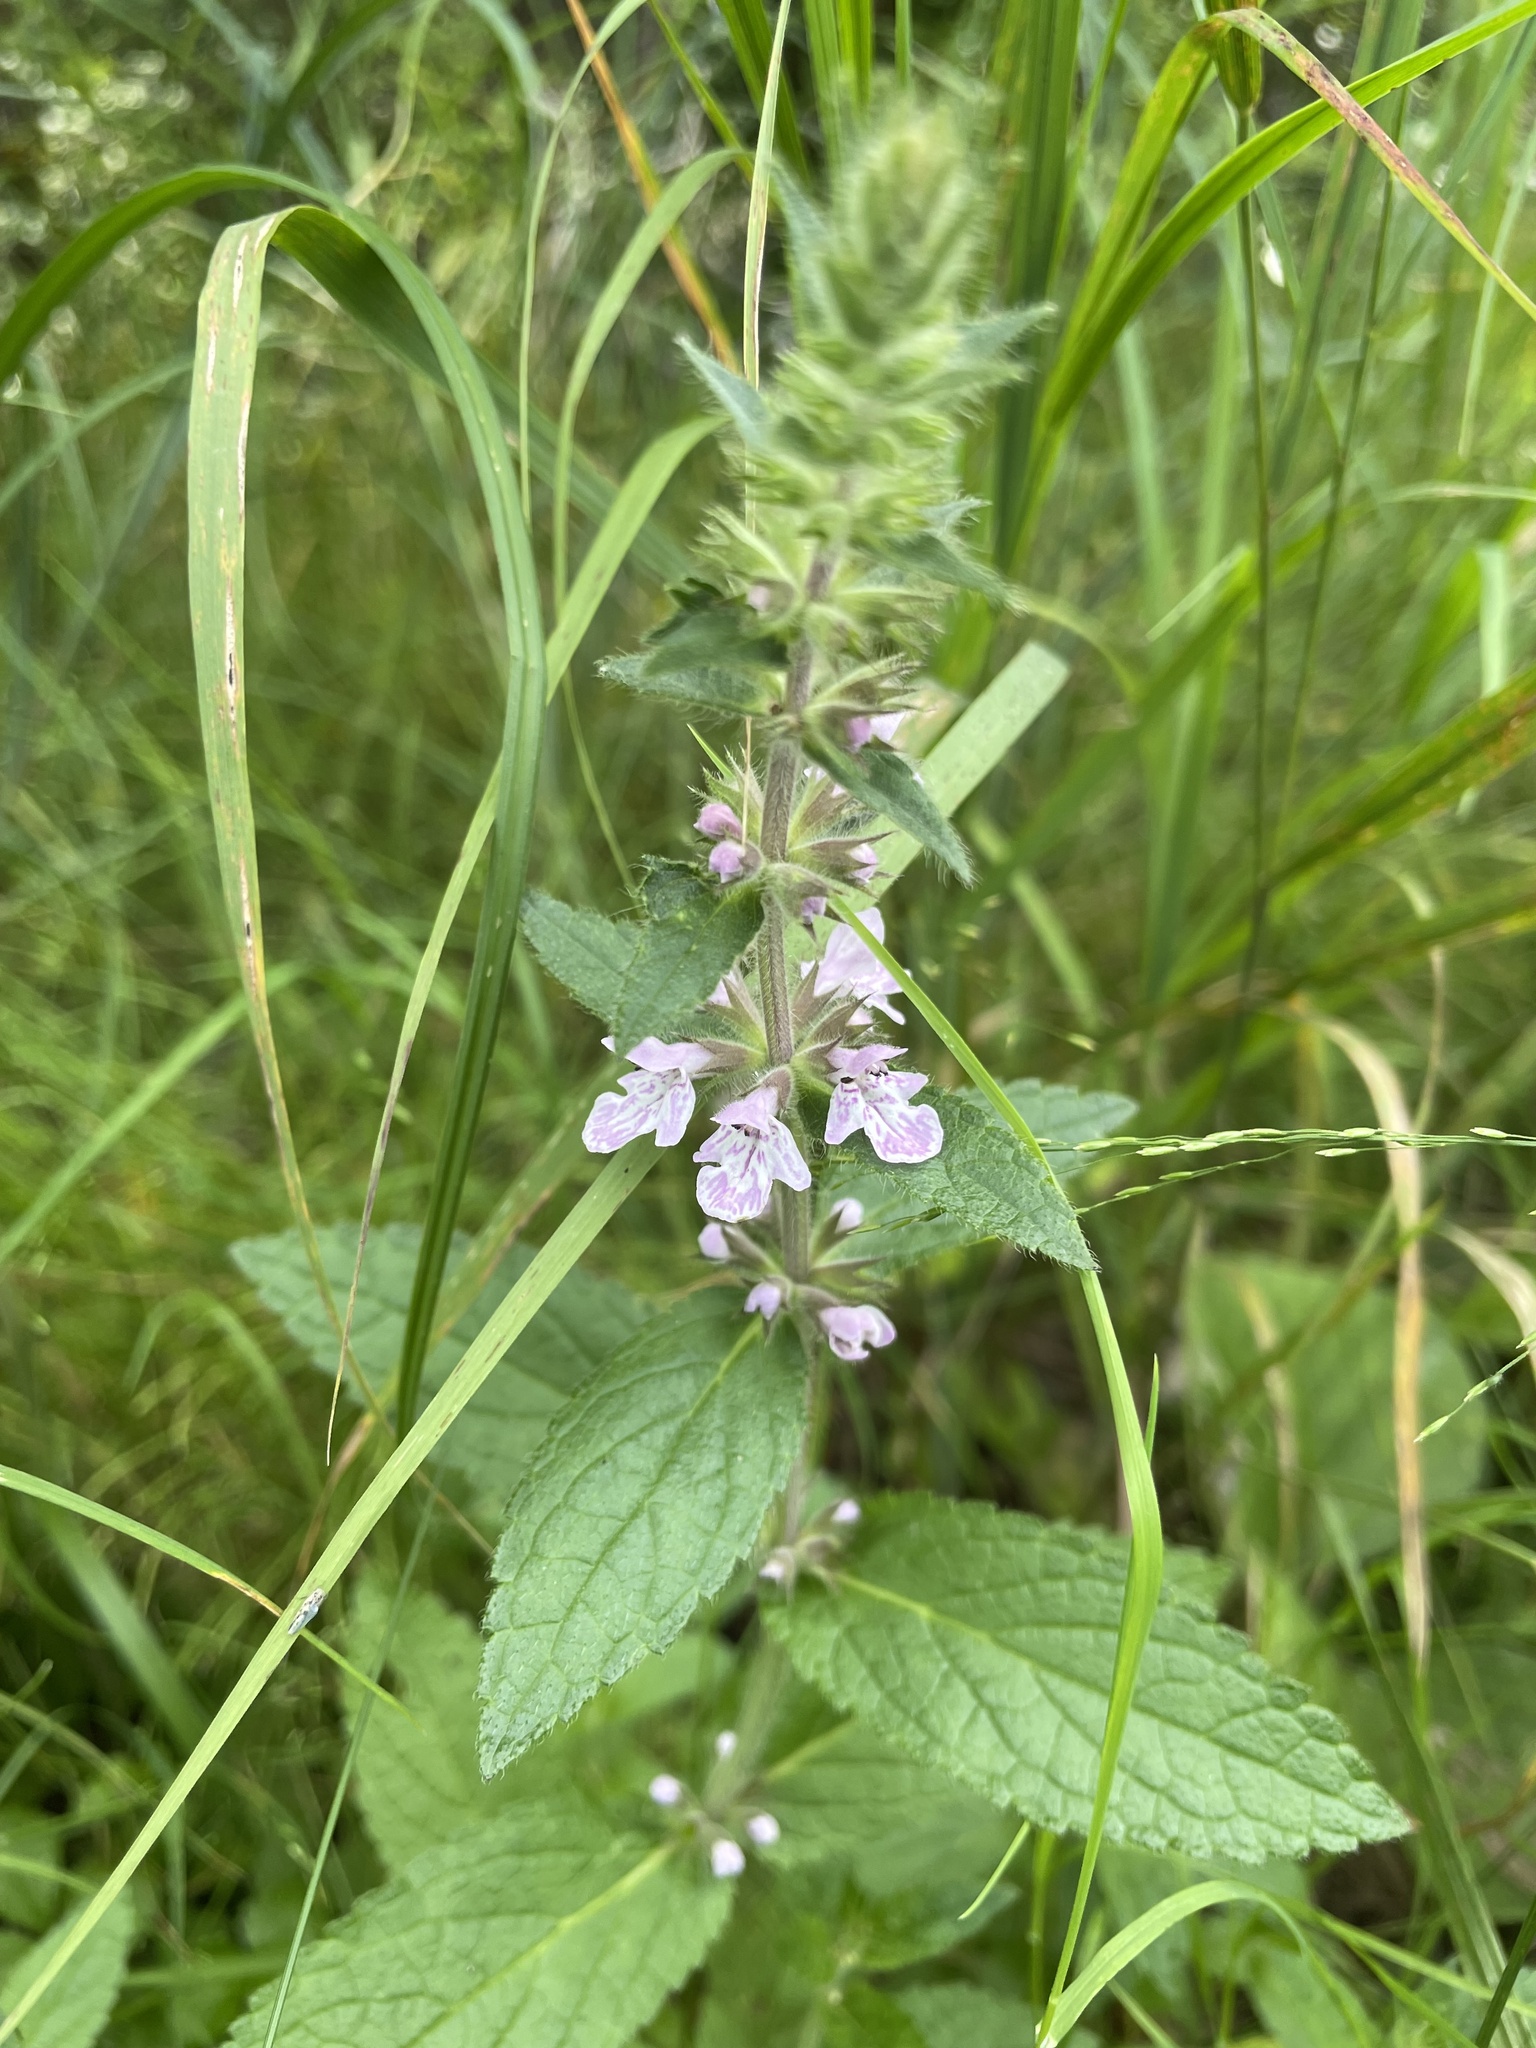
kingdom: Plantae
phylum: Tracheophyta
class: Magnoliopsida
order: Lamiales
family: Lamiaceae
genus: Stachys
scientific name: Stachys pilosa
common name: Hairy hedge-nettle
